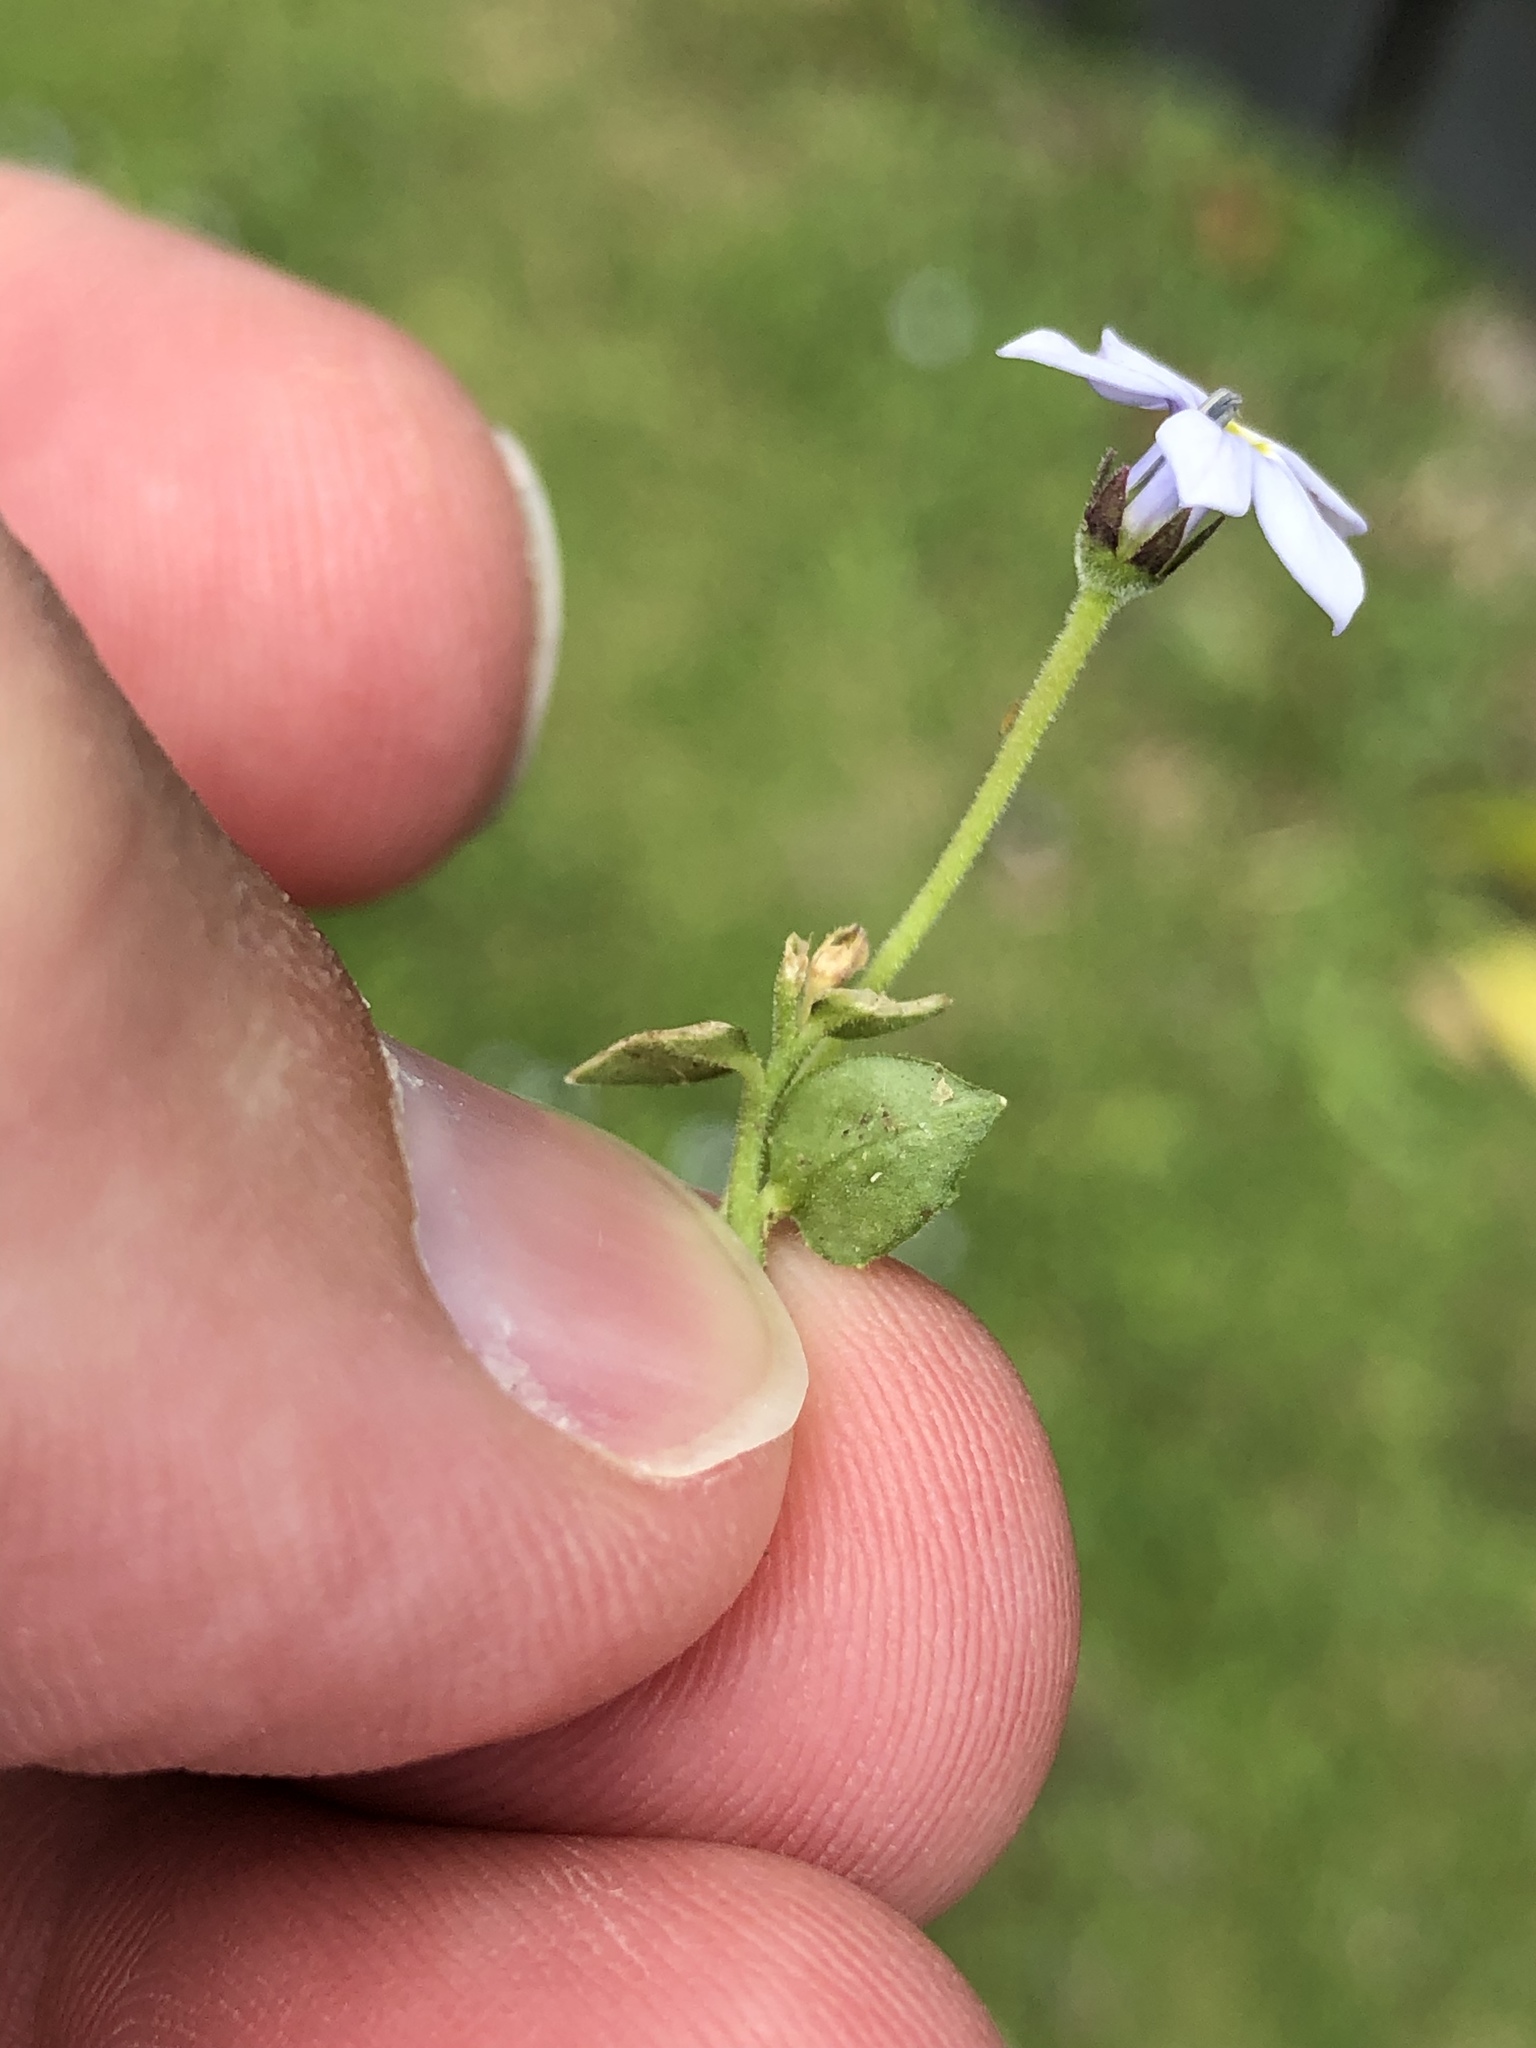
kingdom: Plantae
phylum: Tracheophyta
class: Magnoliopsida
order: Asterales
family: Campanulaceae
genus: Lobelia
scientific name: Lobelia pedunculata
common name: Matted pratia
